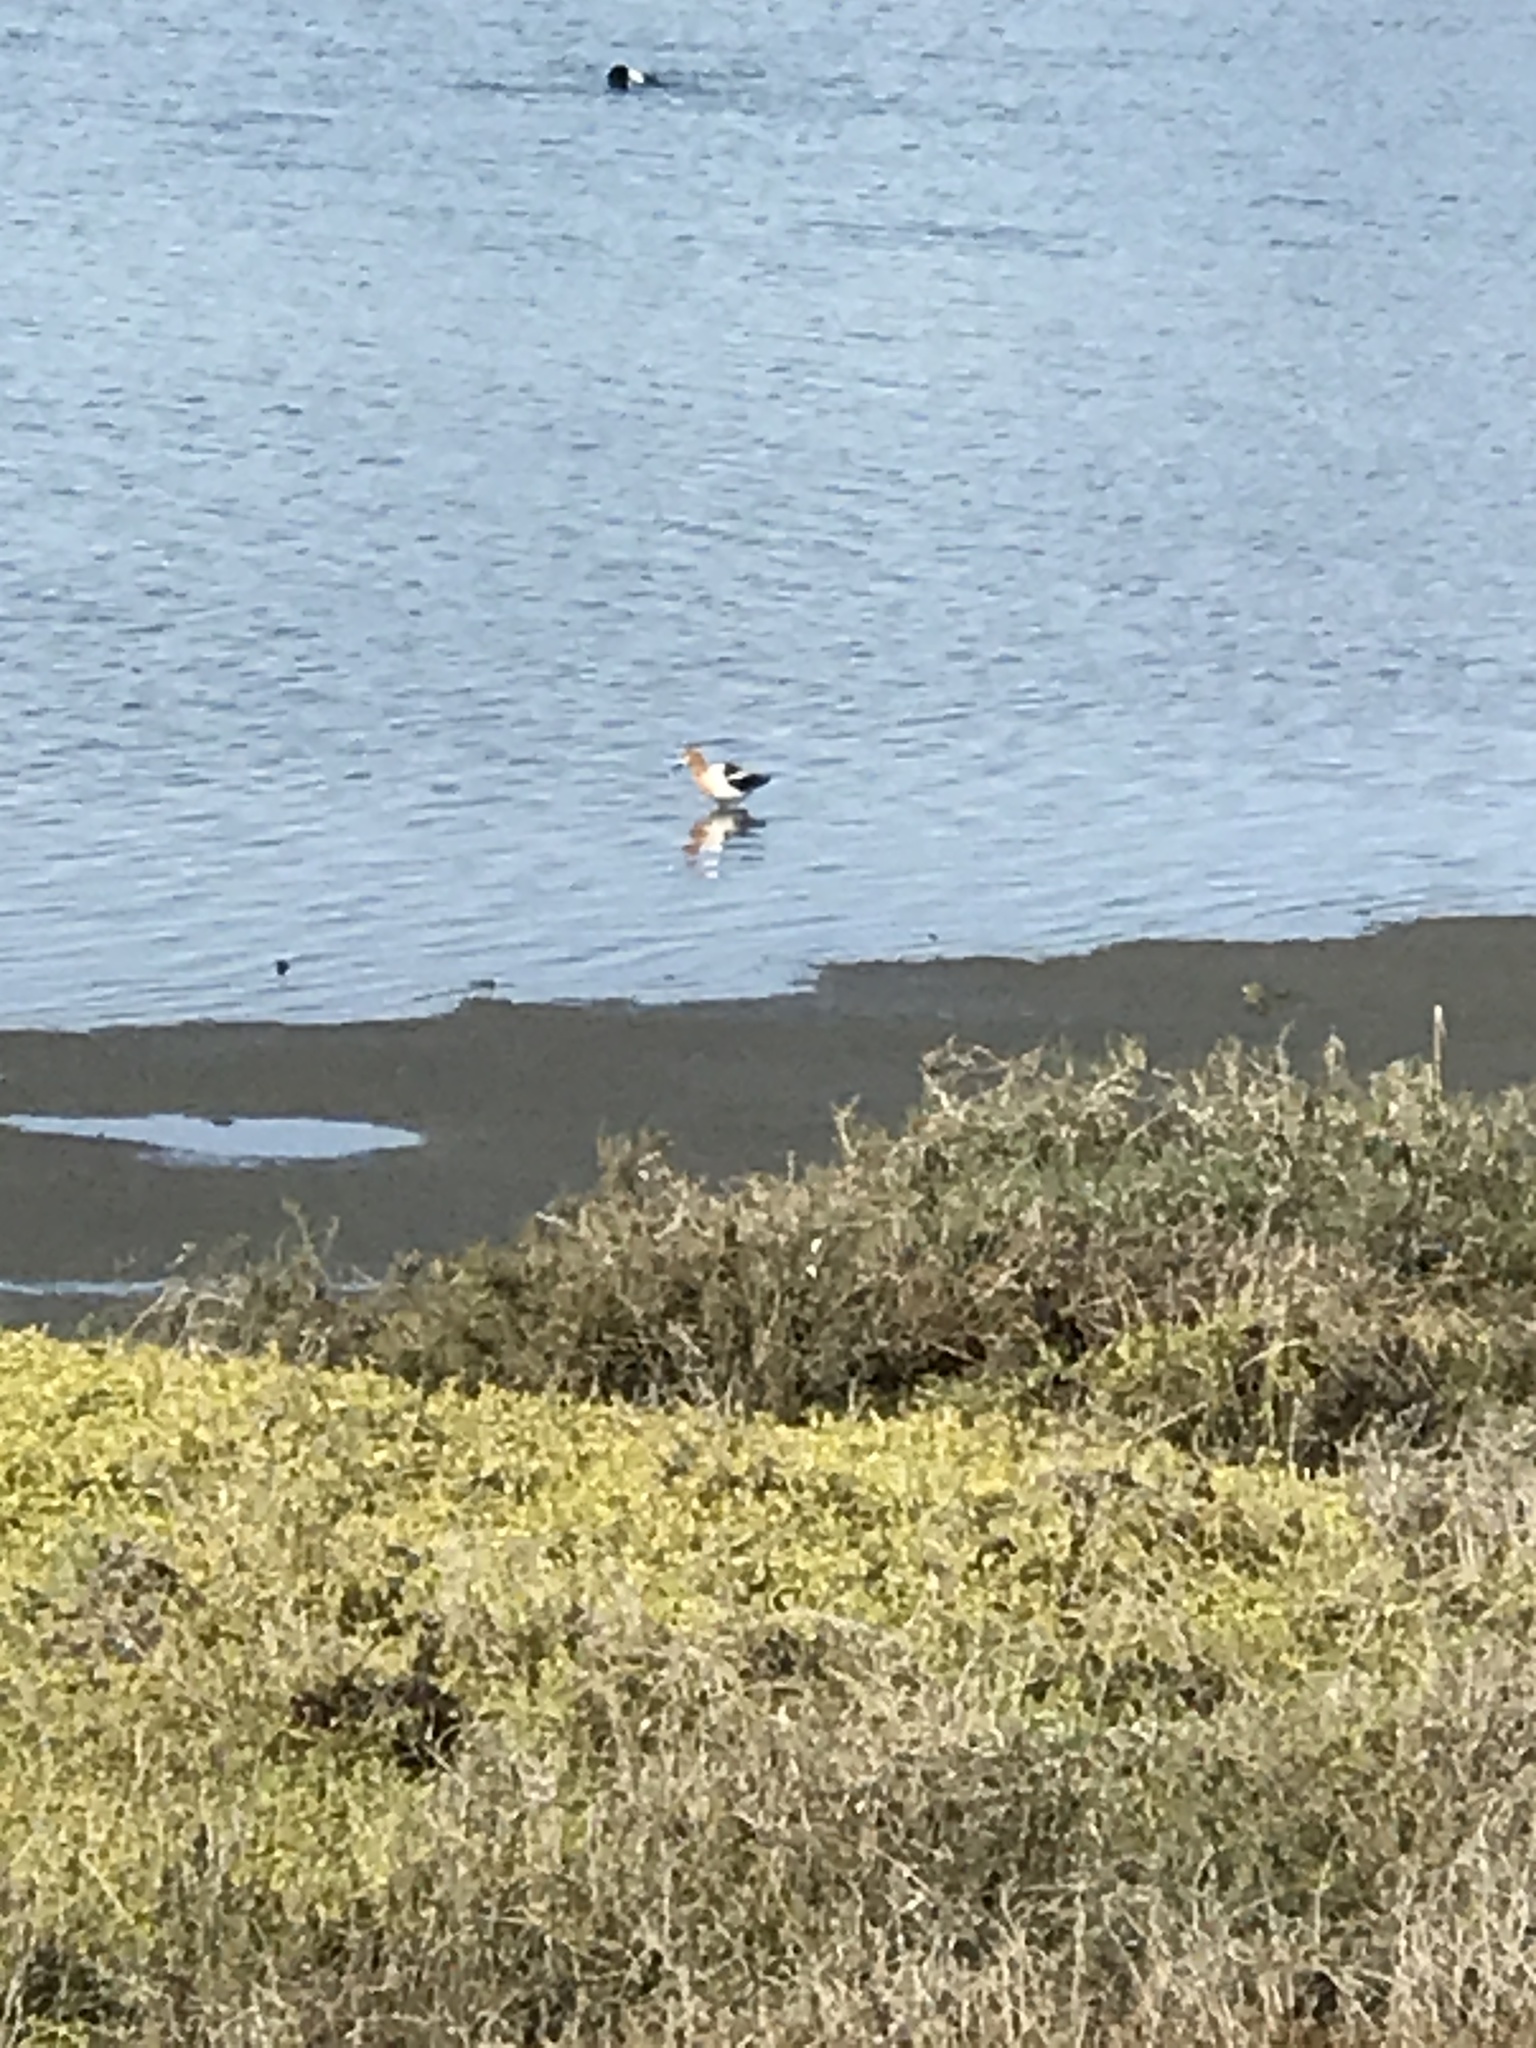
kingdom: Animalia
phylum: Chordata
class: Aves
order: Charadriiformes
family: Recurvirostridae
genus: Recurvirostra
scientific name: Recurvirostra americana
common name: American avocet
